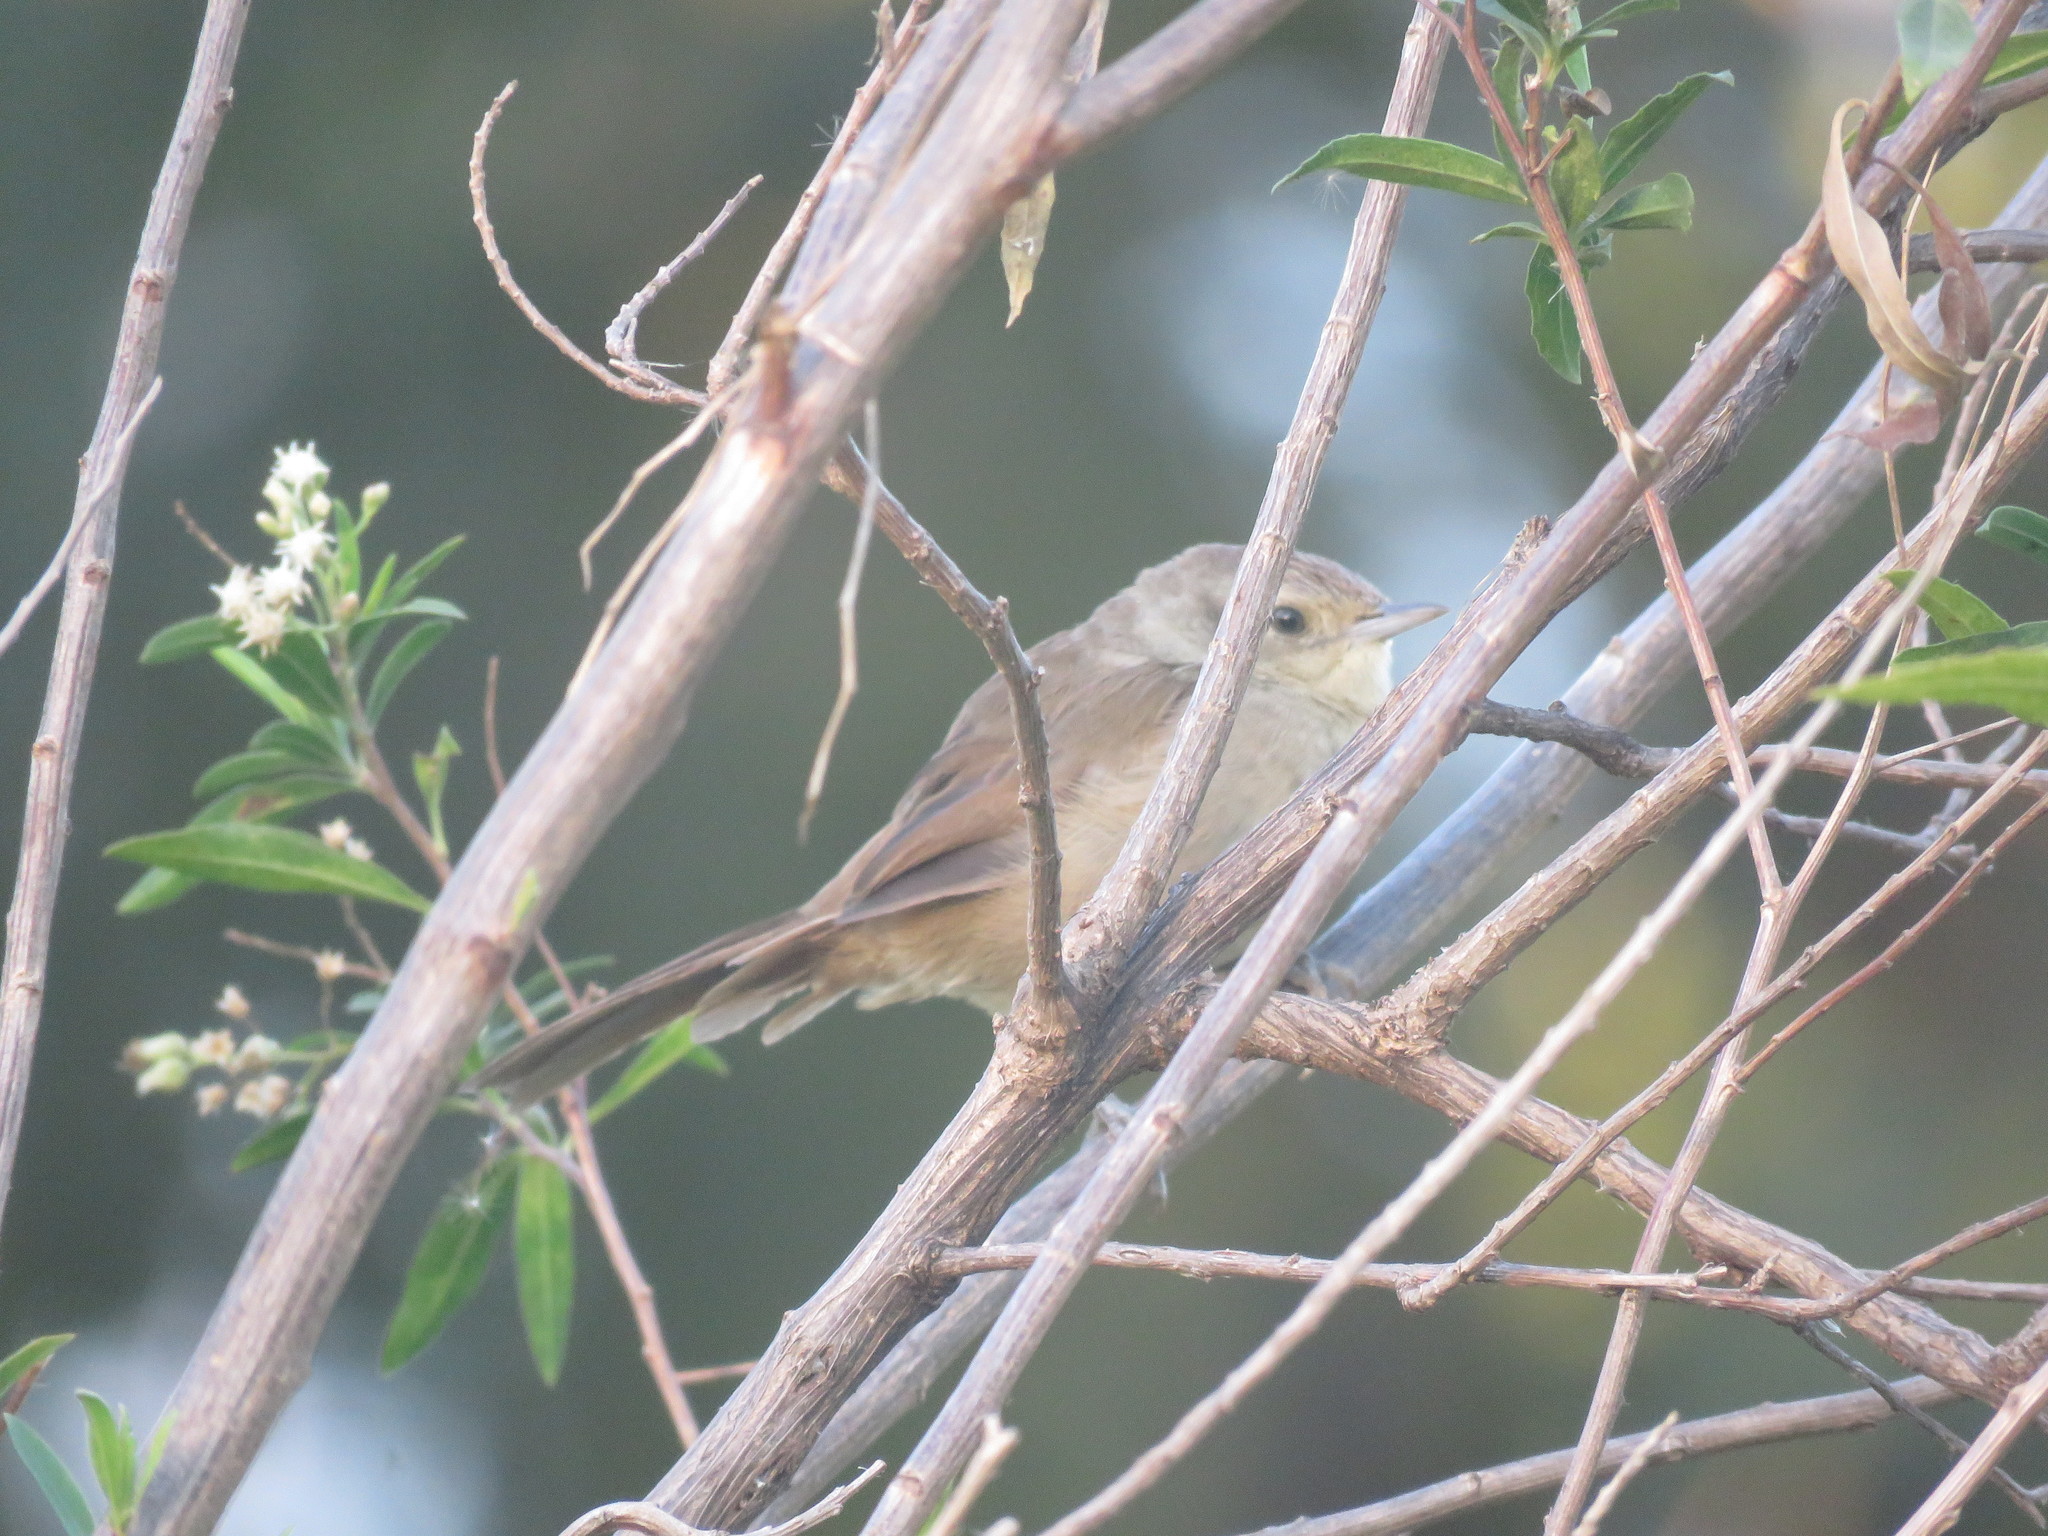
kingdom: Animalia
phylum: Chordata
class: Aves
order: Passeriformes
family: Furnariidae
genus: Phacellodomus
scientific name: Phacellodomus sibilatrix
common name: Little thornbird
